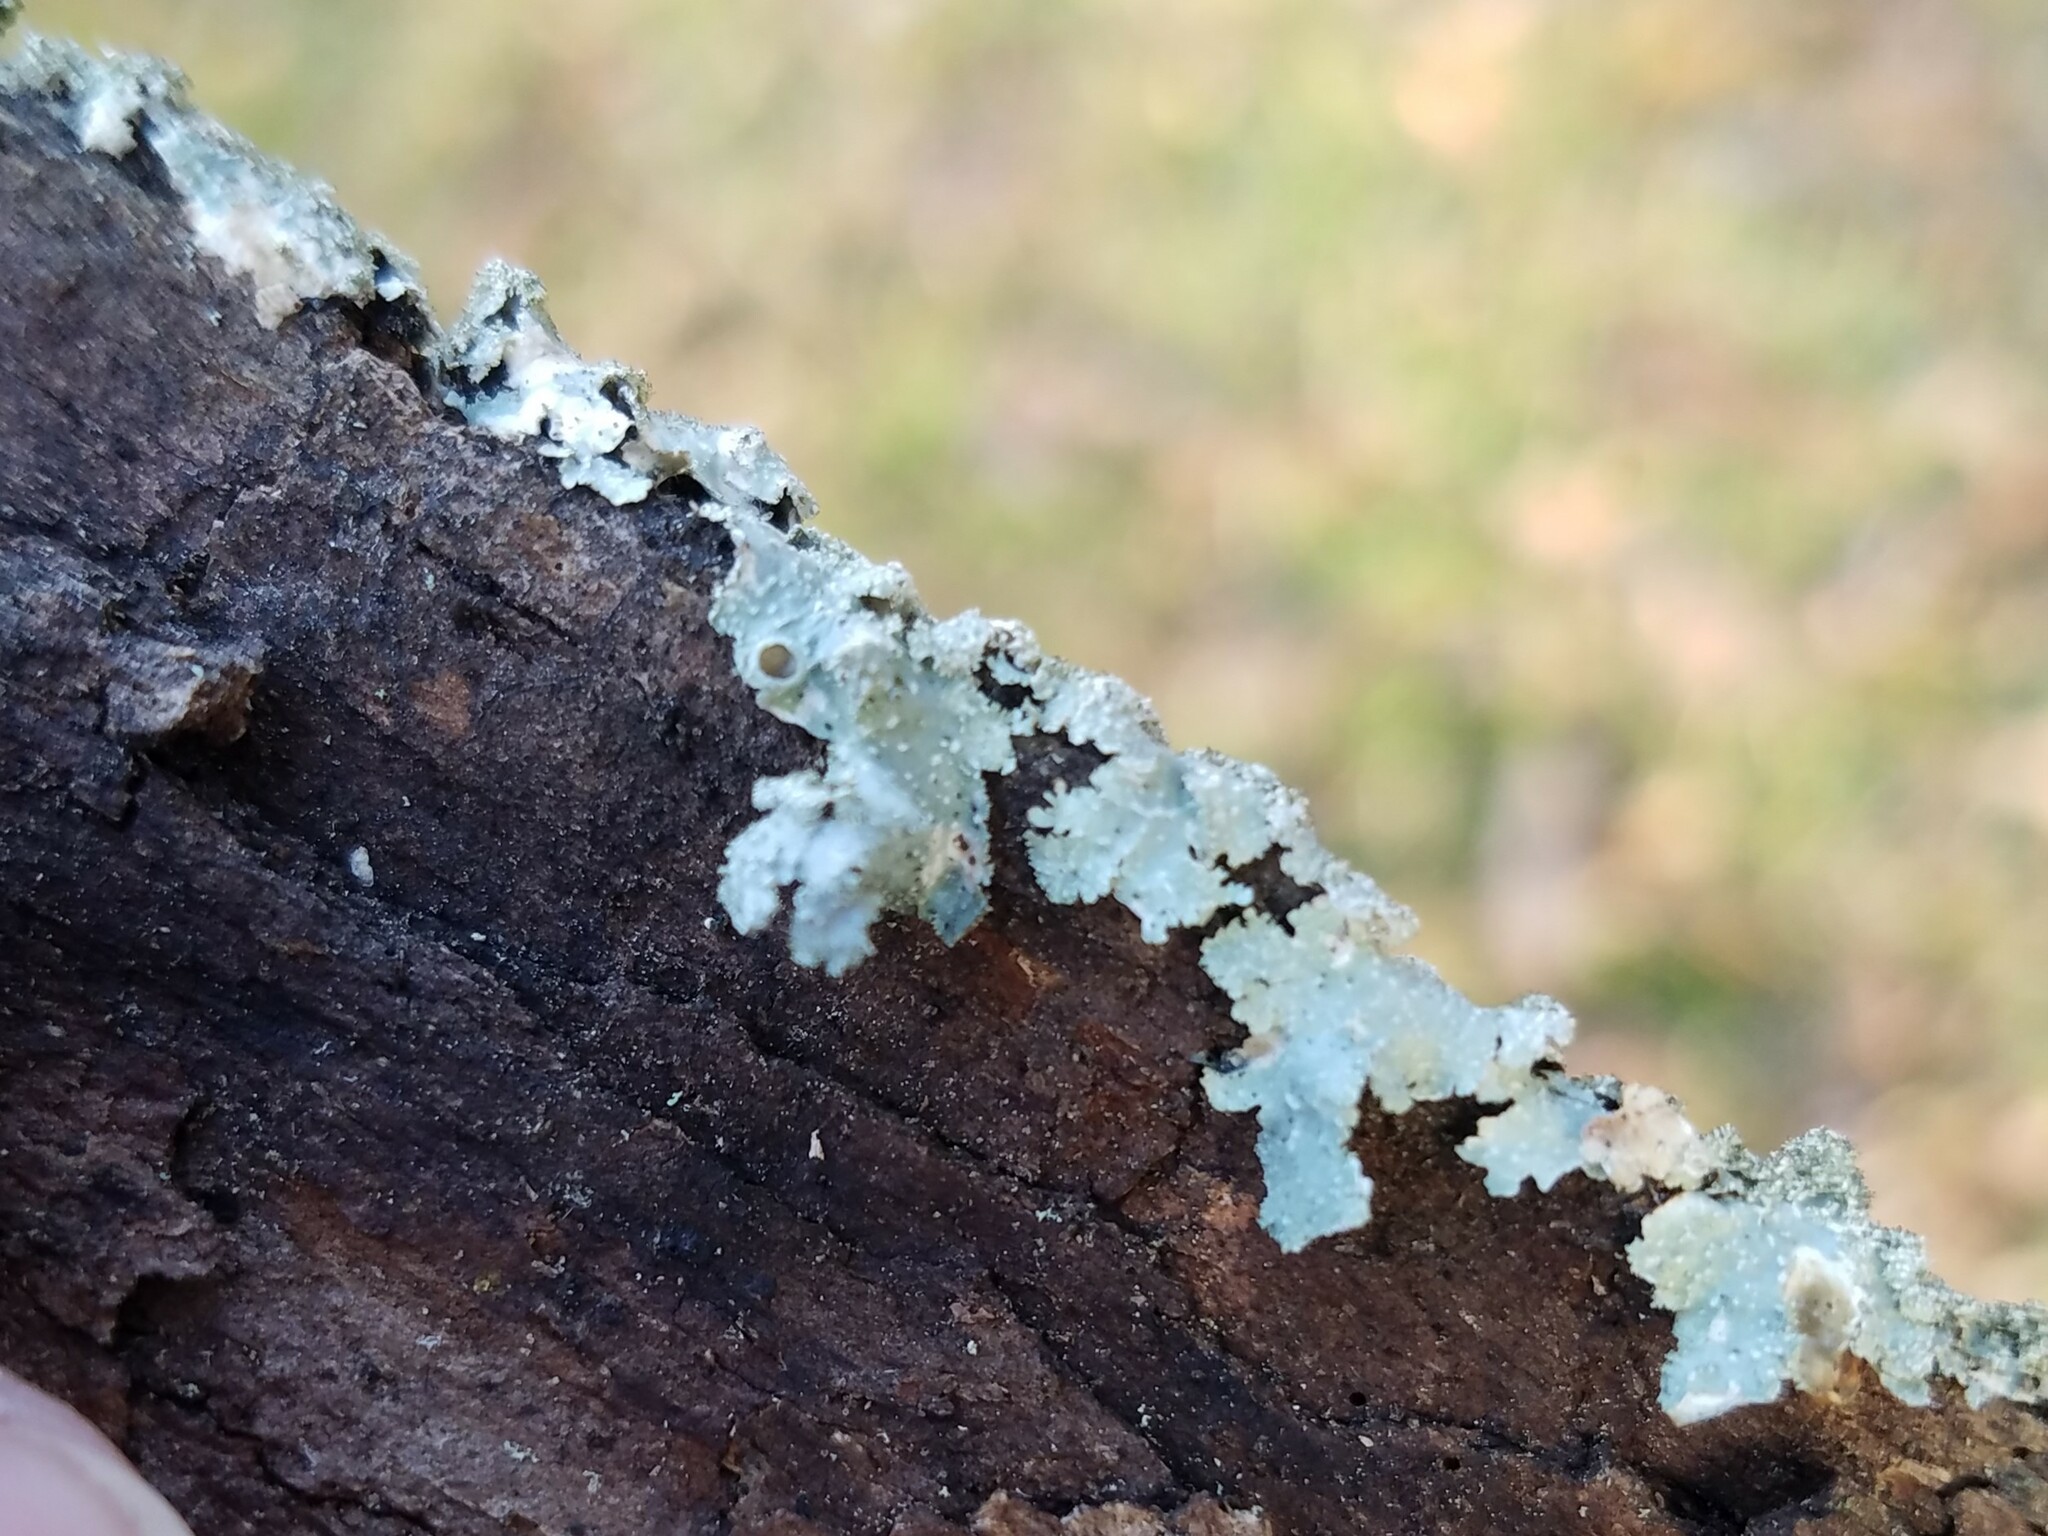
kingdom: Fungi
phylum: Ascomycota
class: Lecanoromycetes
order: Lecanorales
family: Parmeliaceae
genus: Punctelia
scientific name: Punctelia rudecta
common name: Rough speckled shield lichen
